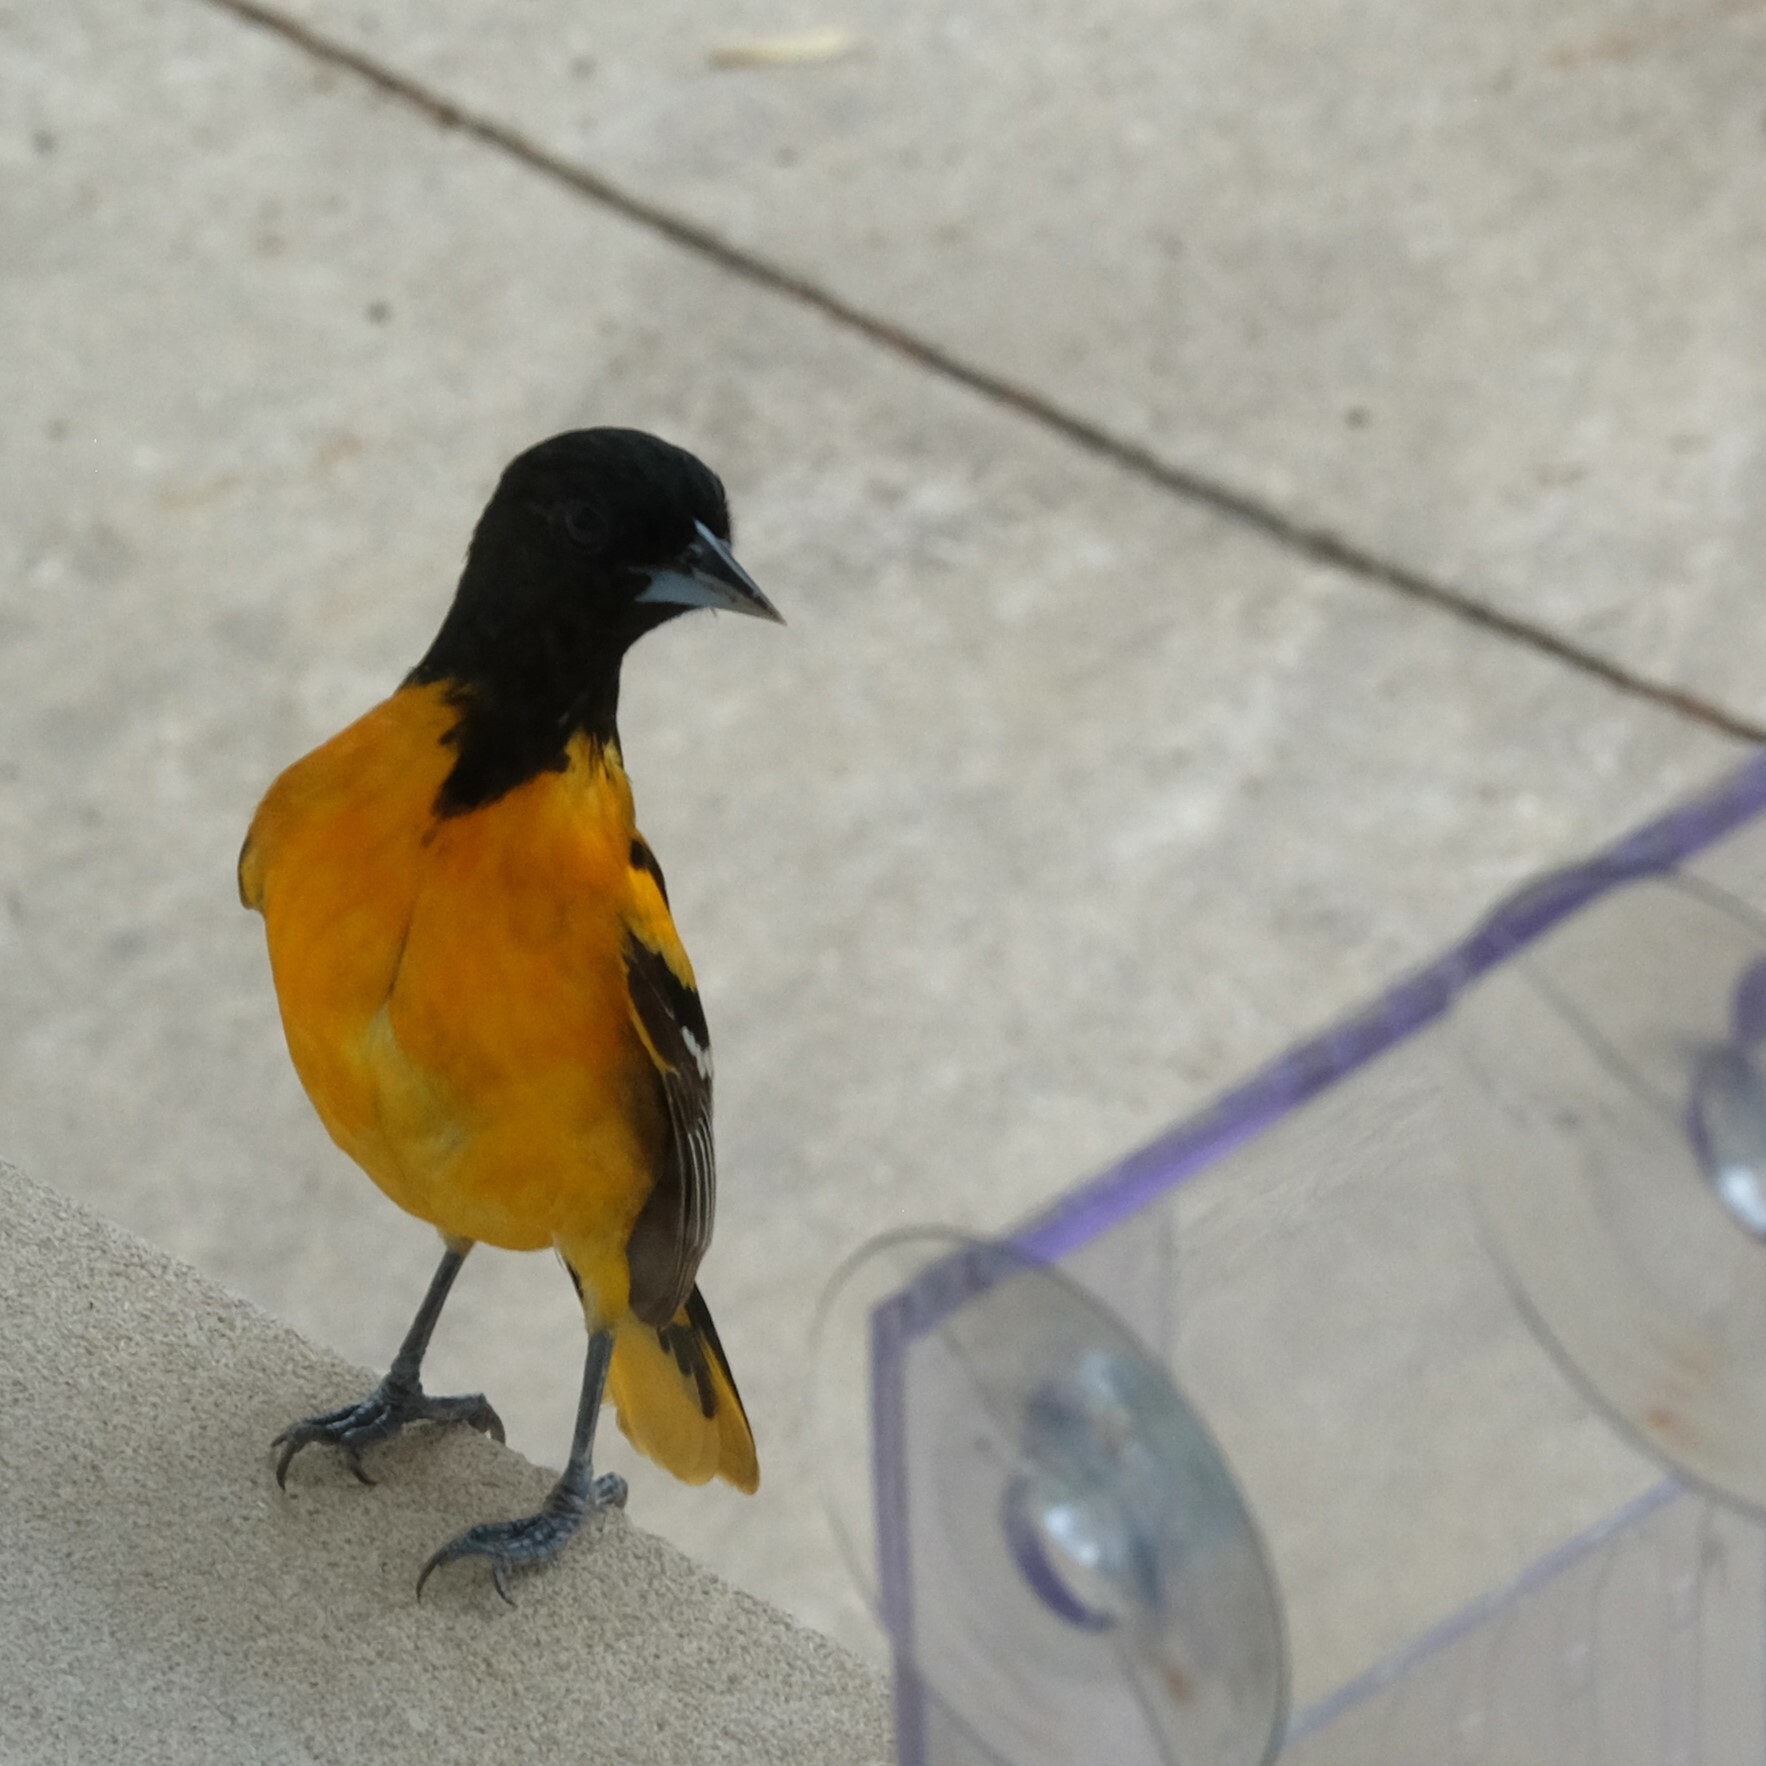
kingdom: Animalia
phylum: Chordata
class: Aves
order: Passeriformes
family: Icteridae
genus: Icterus
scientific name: Icterus galbula
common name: Baltimore oriole
